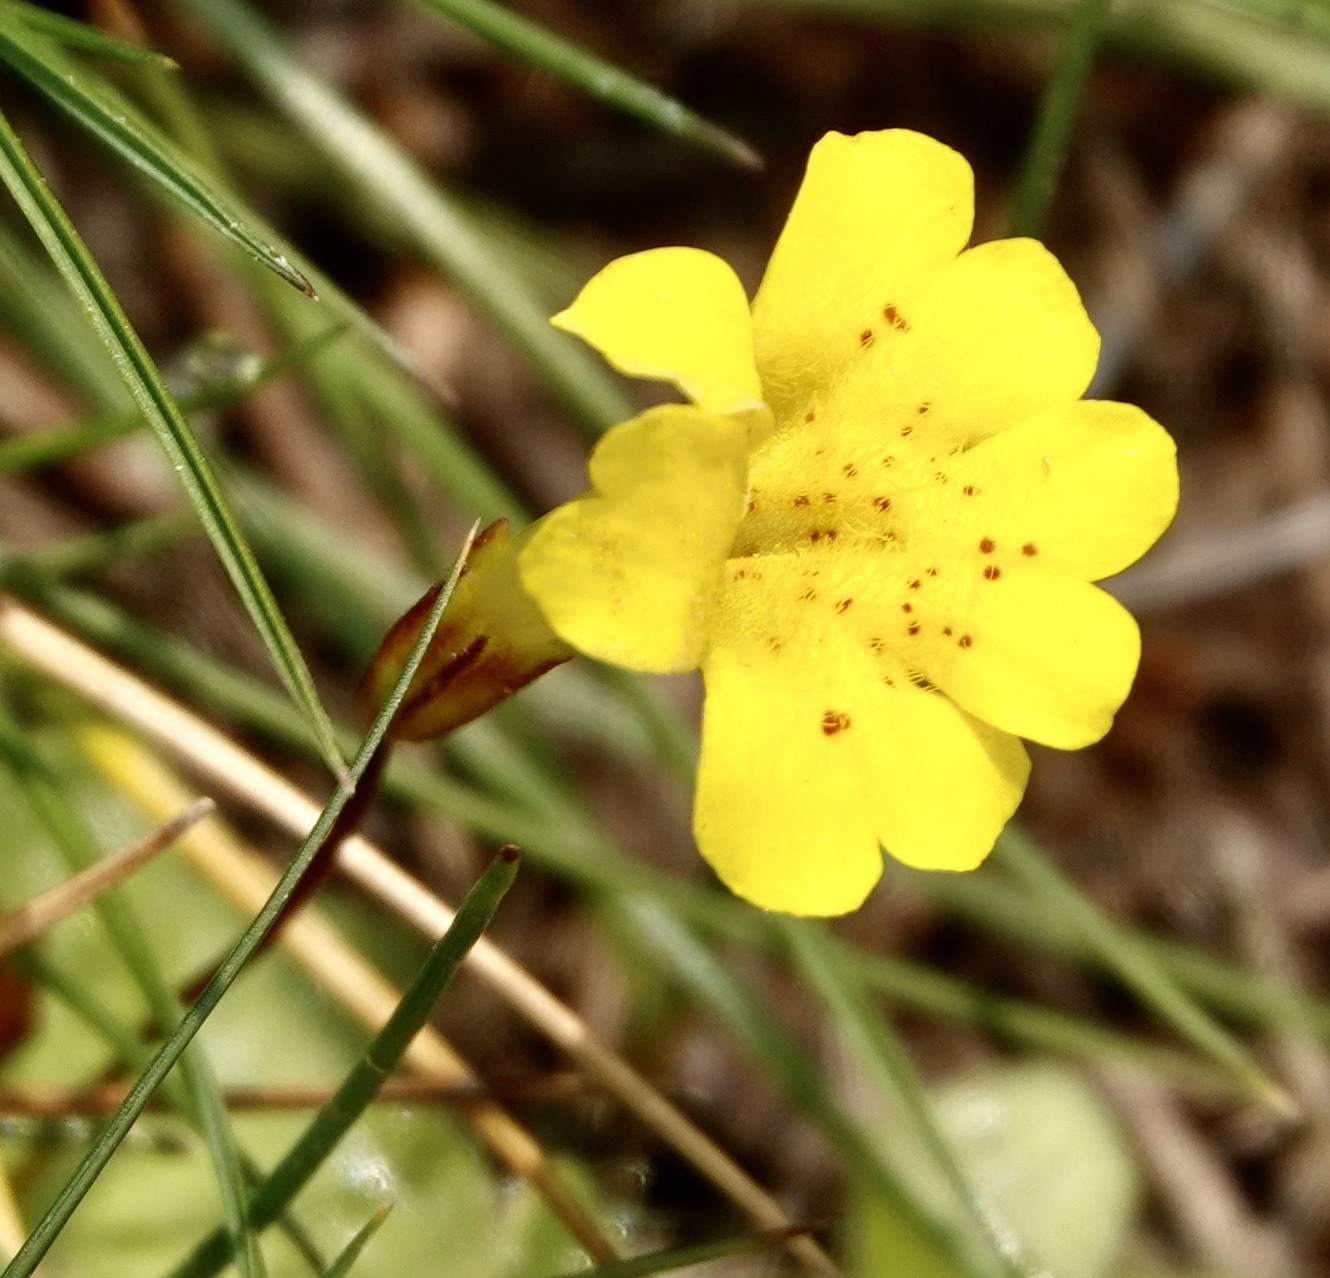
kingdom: Plantae
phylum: Tracheophyta
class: Magnoliopsida
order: Lamiales
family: Phrymaceae
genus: Erythranthe
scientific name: Erythranthe primuloides
